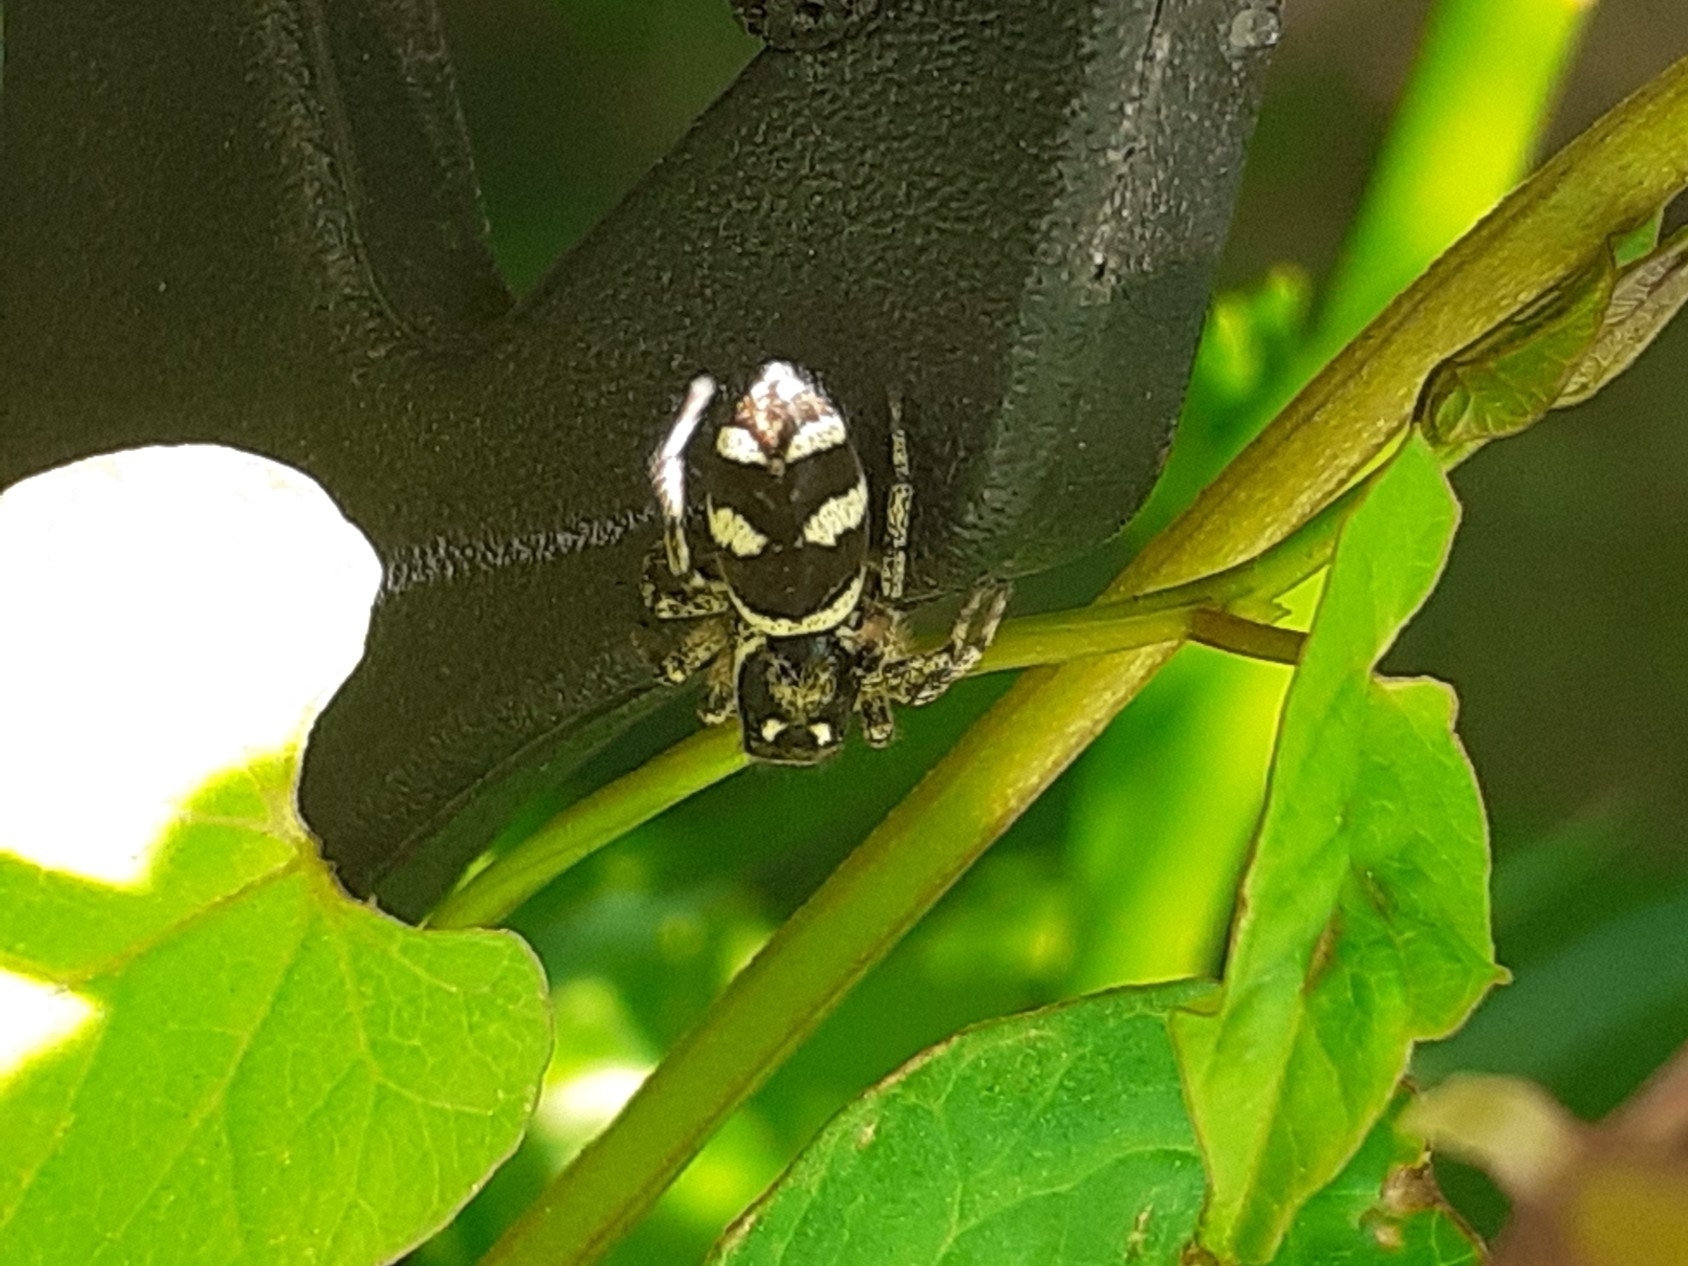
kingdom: Animalia
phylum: Arthropoda
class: Arachnida
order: Araneae
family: Salticidae
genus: Salticus
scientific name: Salticus scenicus
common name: Zebra jumper
